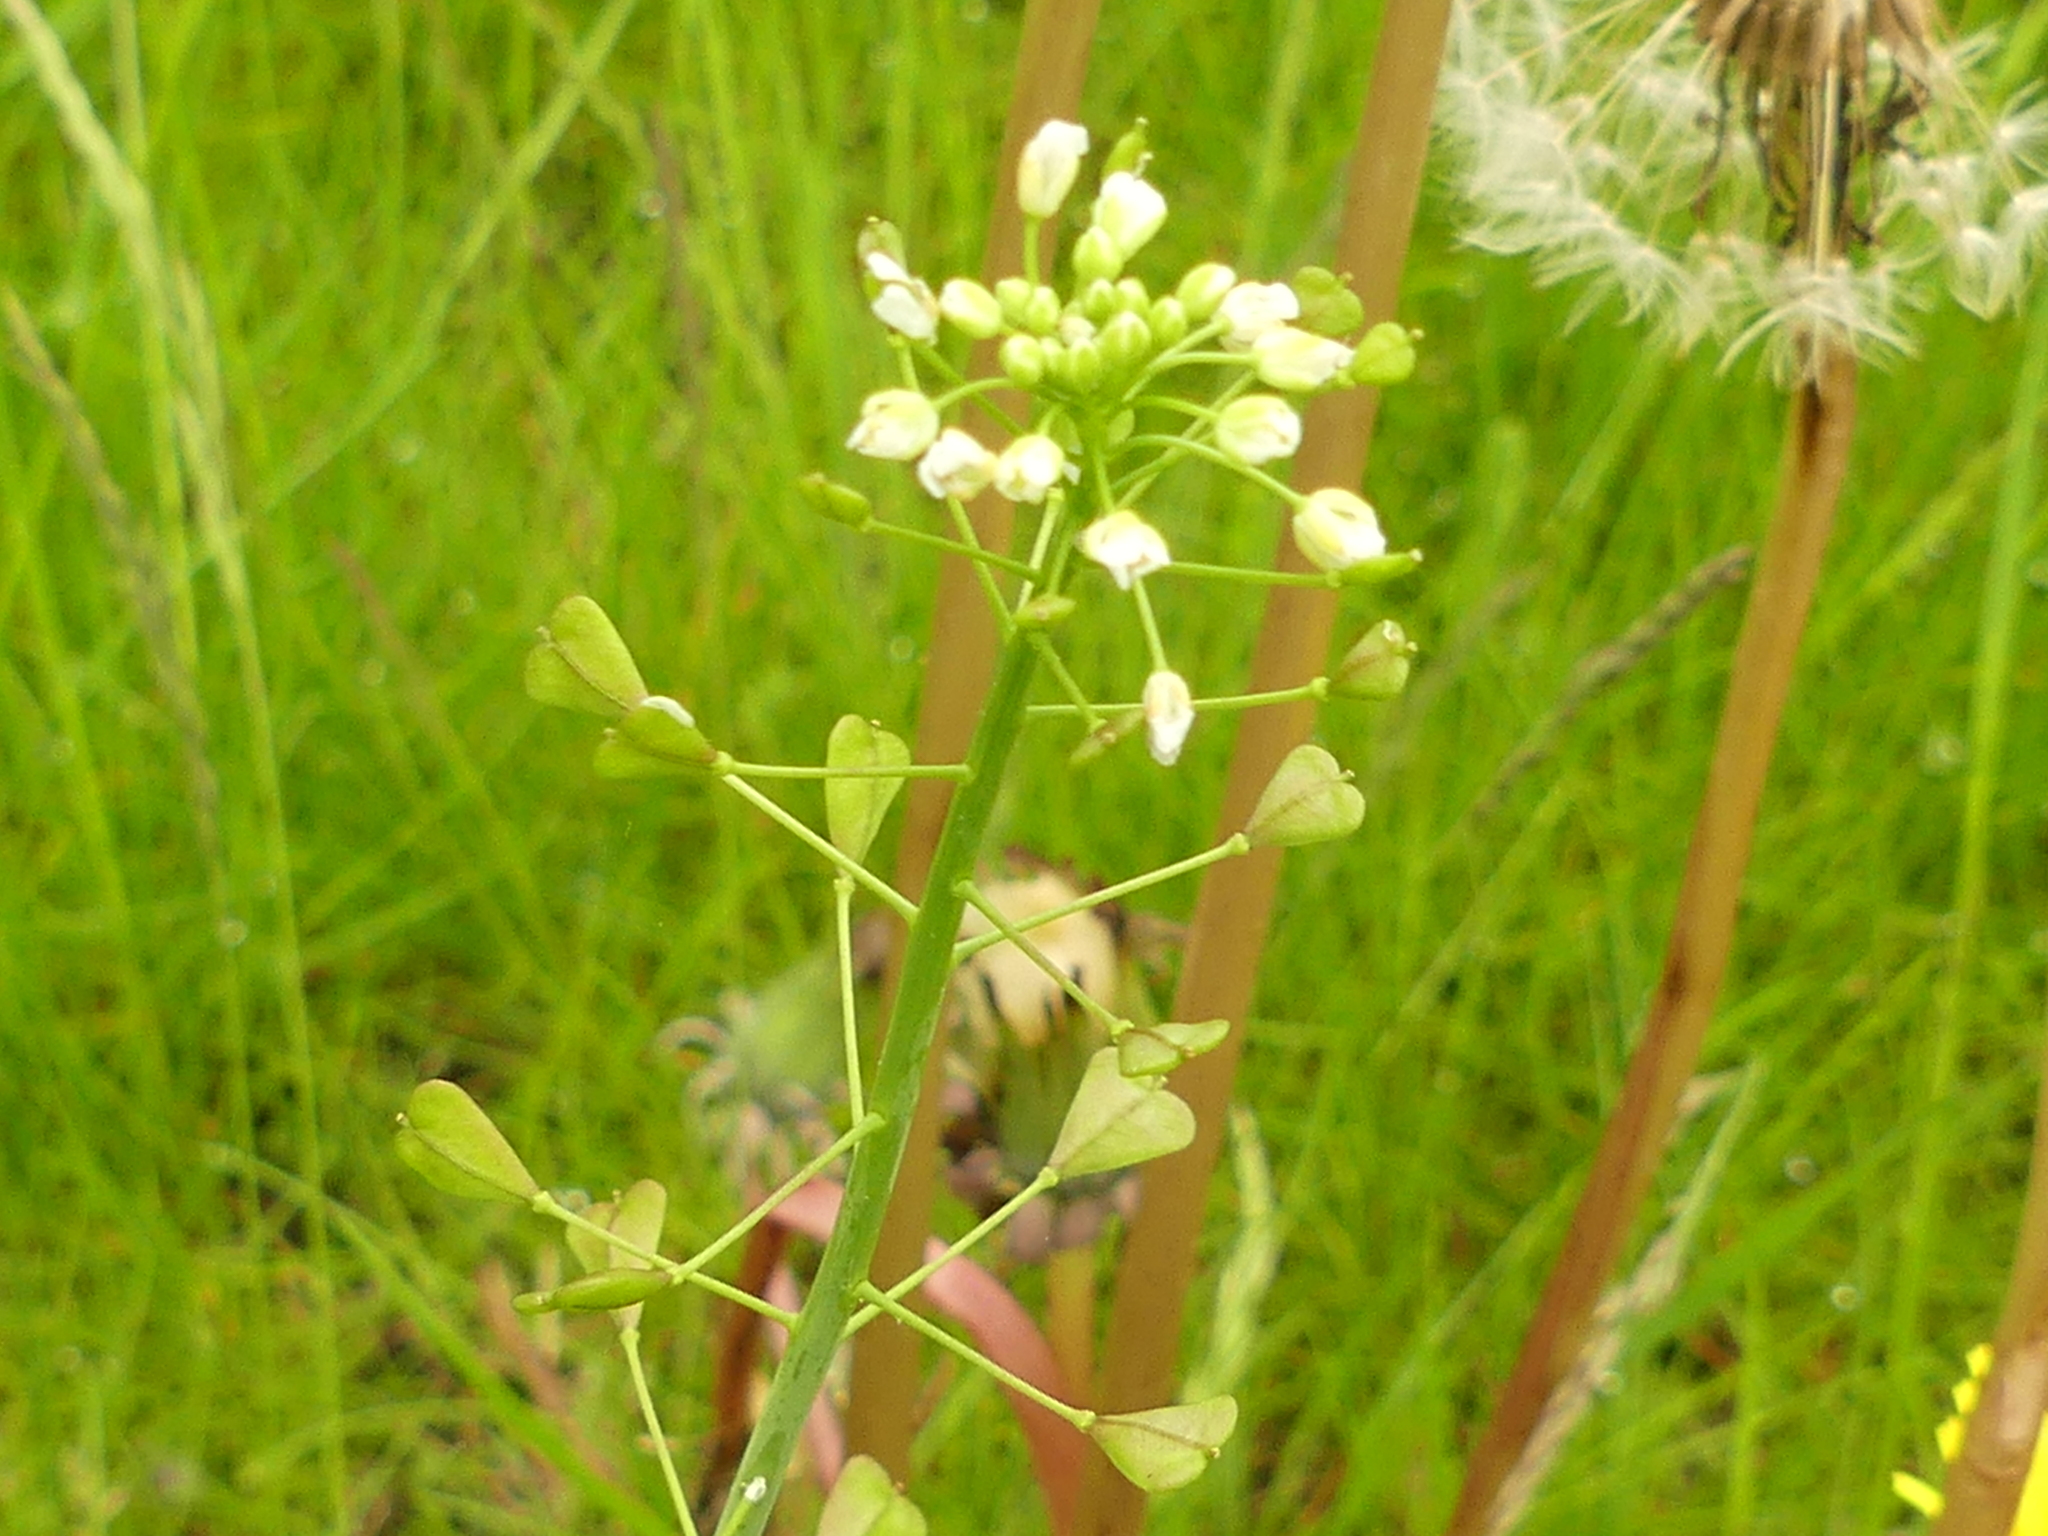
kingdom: Plantae
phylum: Tracheophyta
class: Magnoliopsida
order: Brassicales
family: Brassicaceae
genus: Capsella
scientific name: Capsella bursa-pastoris
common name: Shepherd's purse
